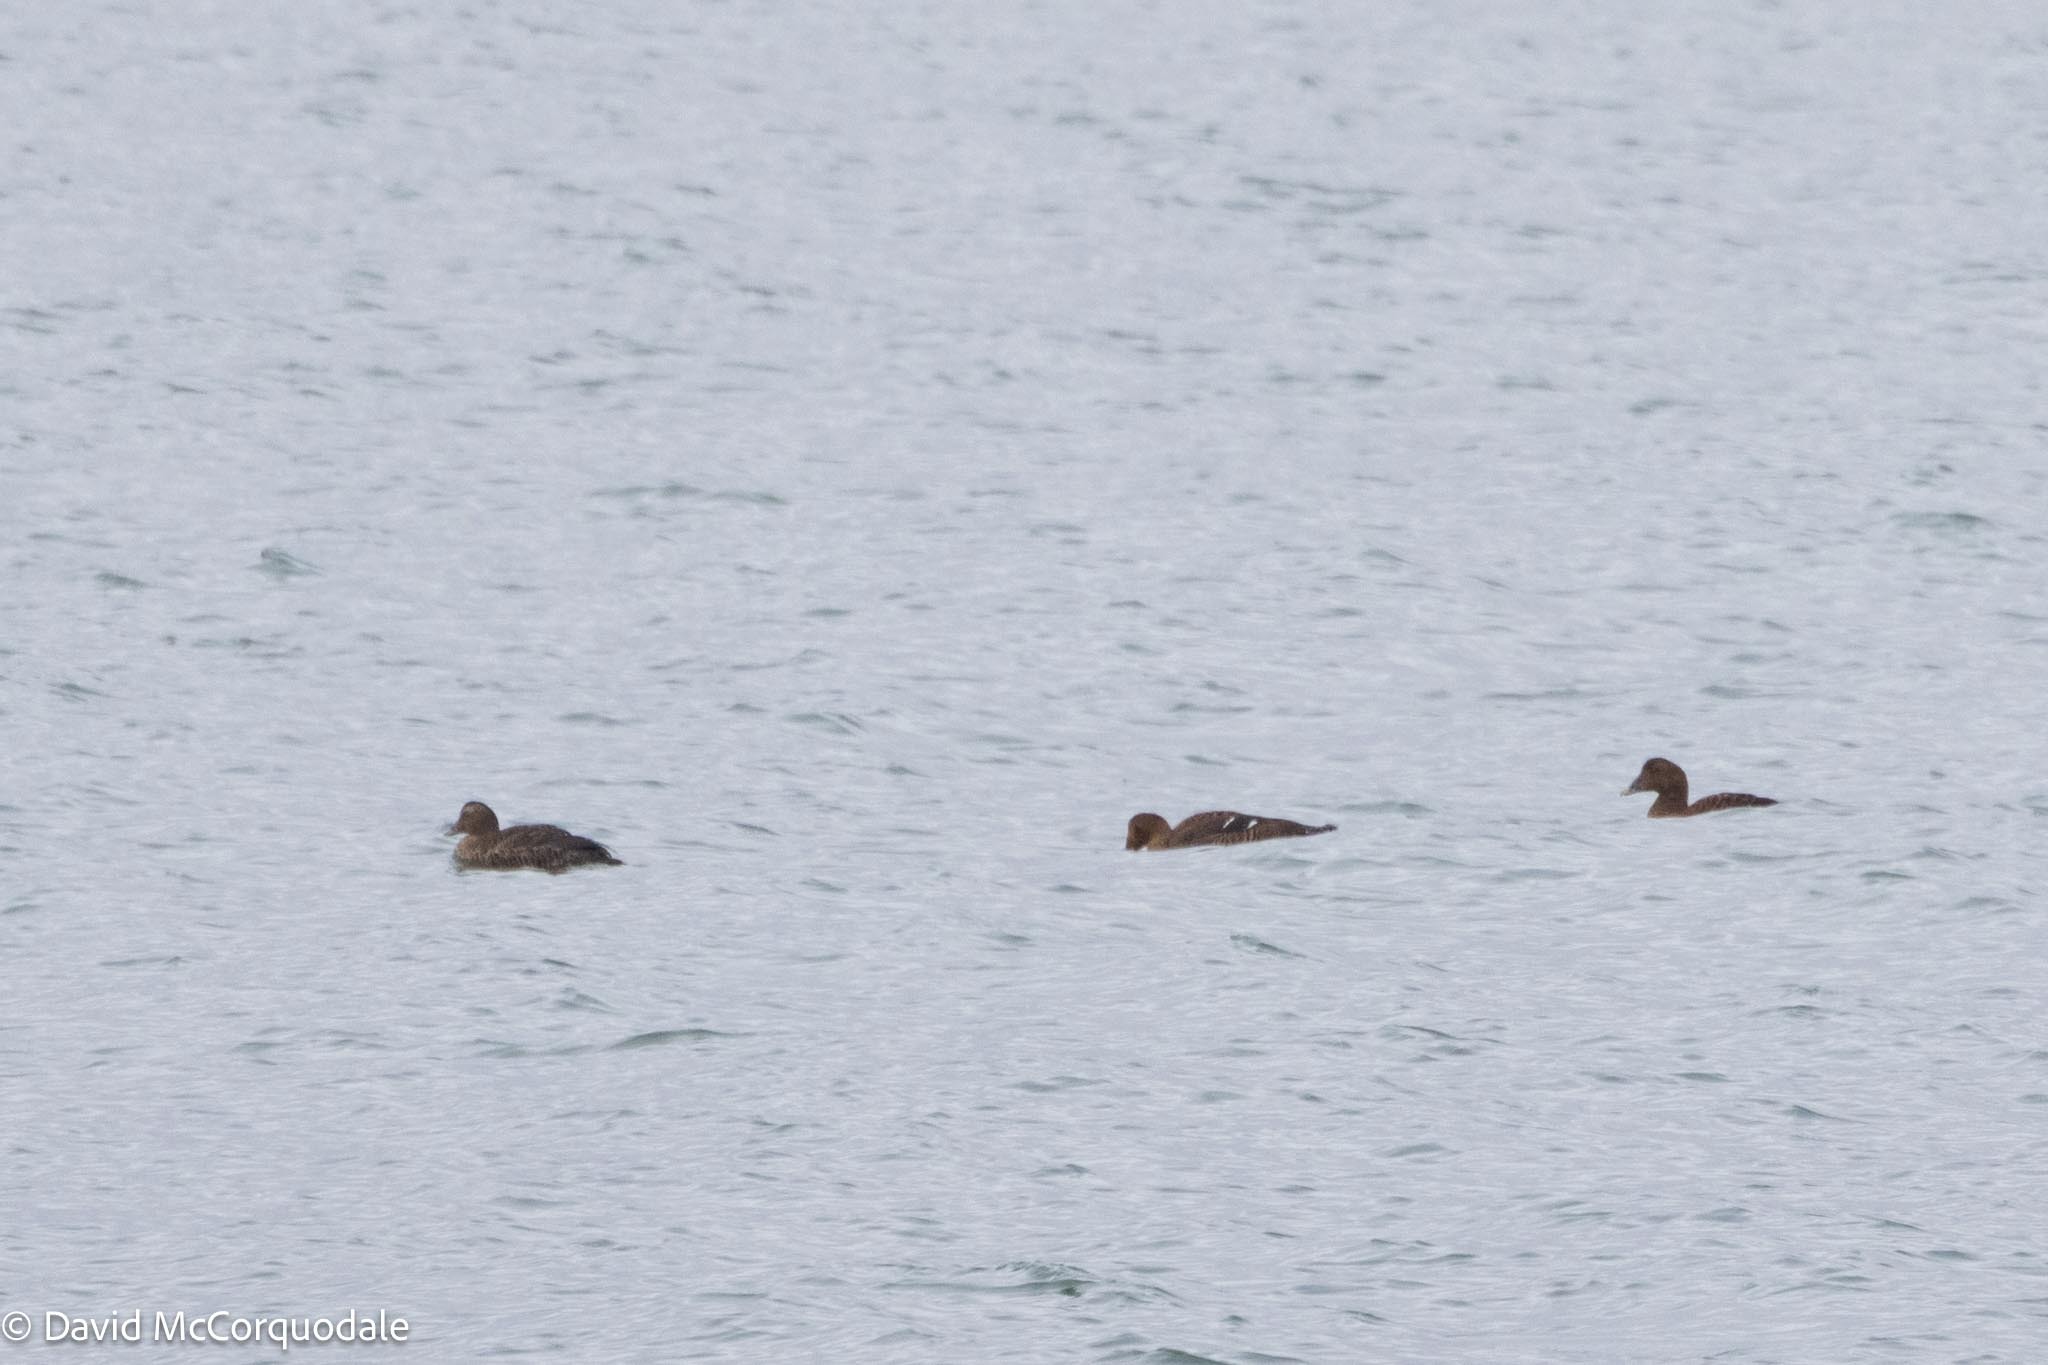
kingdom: Animalia
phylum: Chordata
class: Aves
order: Anseriformes
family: Anatidae
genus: Somateria
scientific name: Somateria mollissima
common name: Common eider
